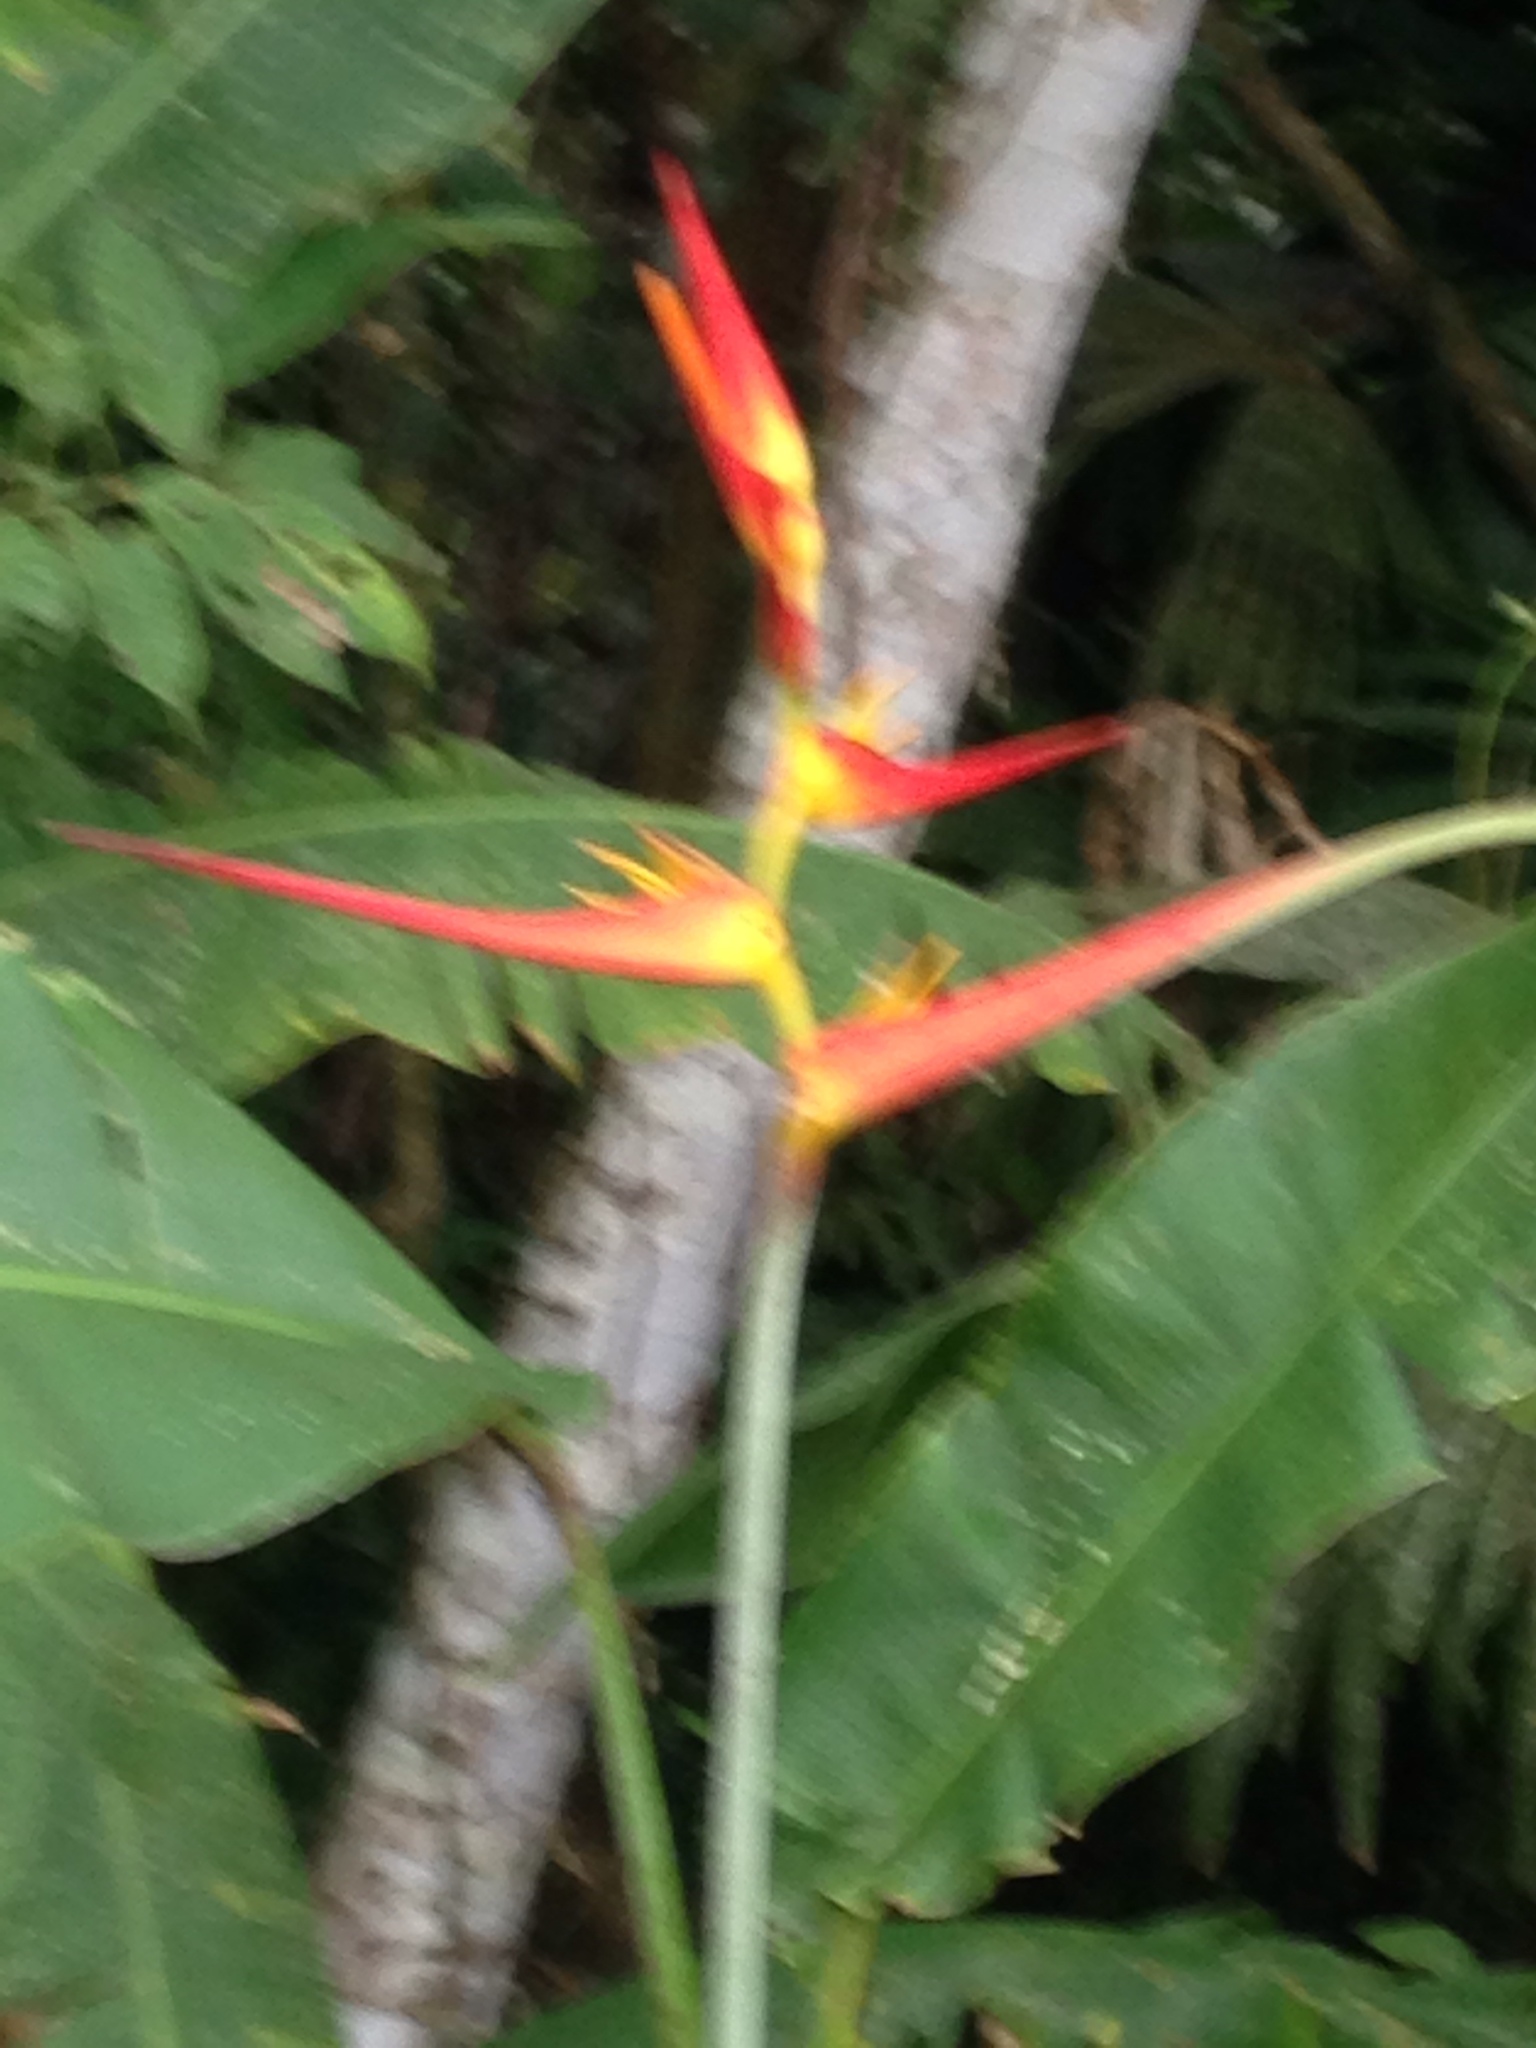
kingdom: Plantae
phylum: Tracheophyta
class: Liliopsida
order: Zingiberales
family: Heliconiaceae
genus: Heliconia
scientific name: Heliconia latispatha
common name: Expanded lobsterclaw
